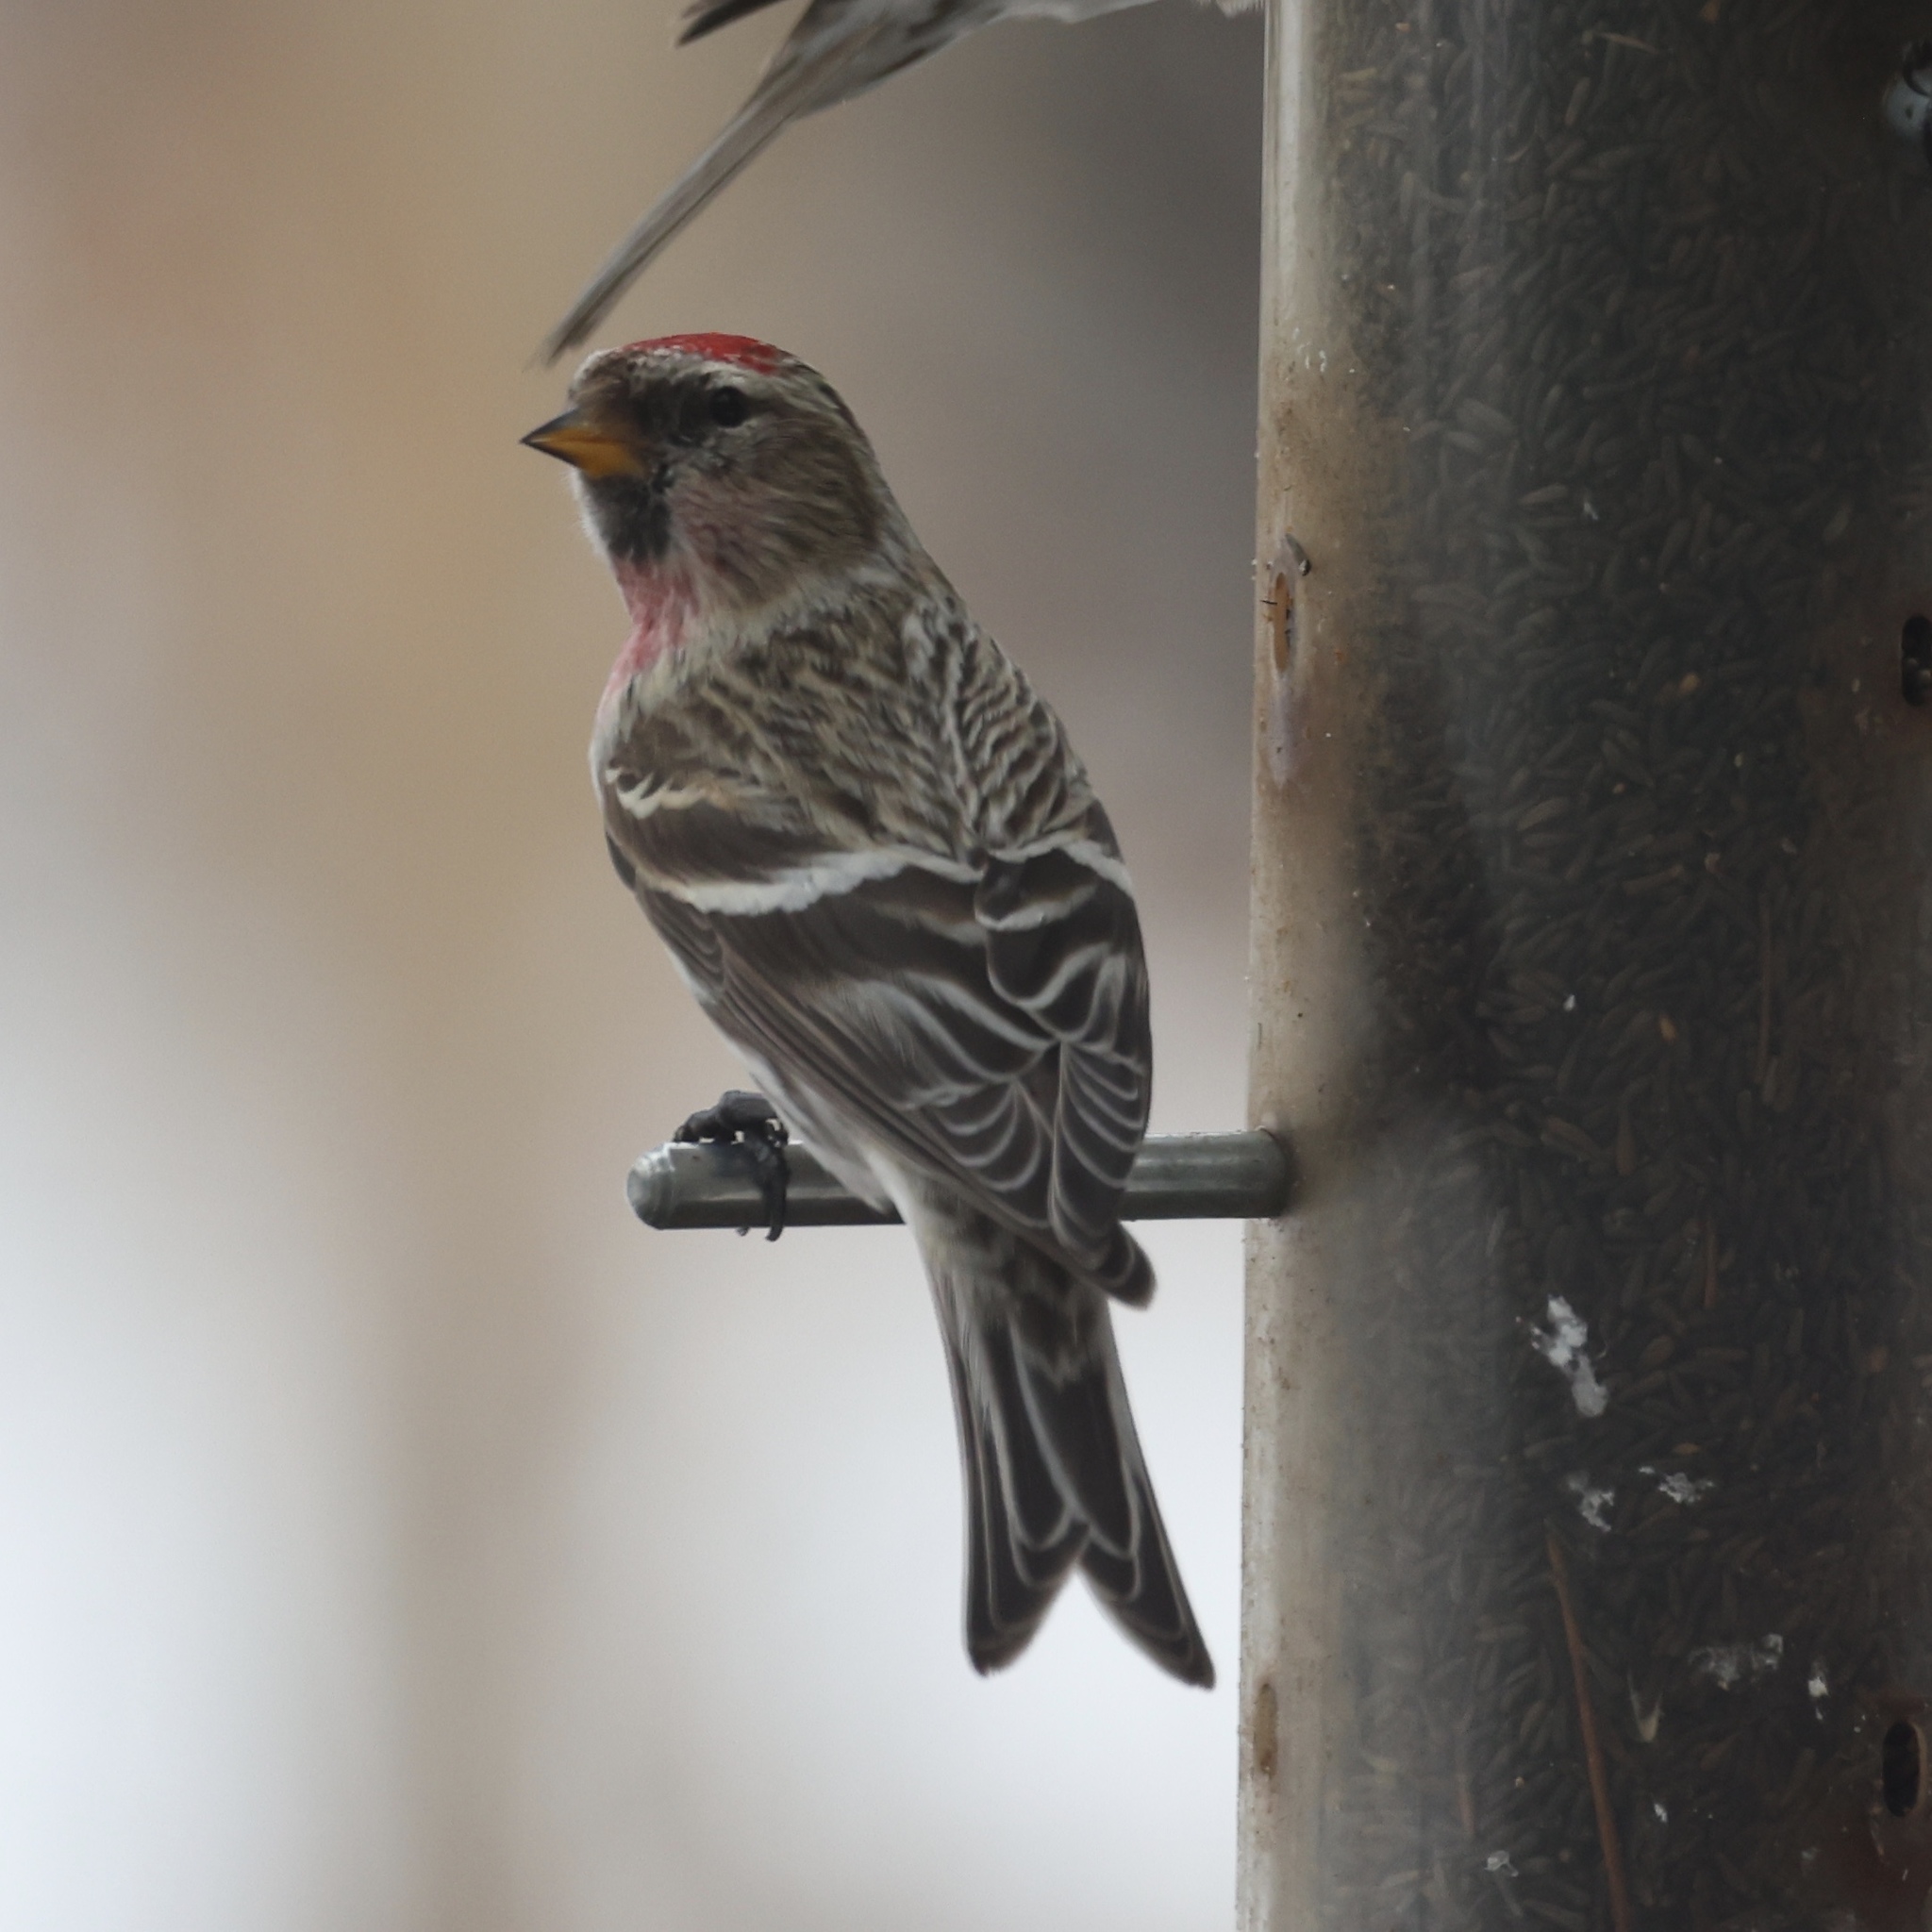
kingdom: Animalia
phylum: Chordata
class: Aves
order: Passeriformes
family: Fringillidae
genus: Acanthis
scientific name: Acanthis flammea
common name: Common redpoll
